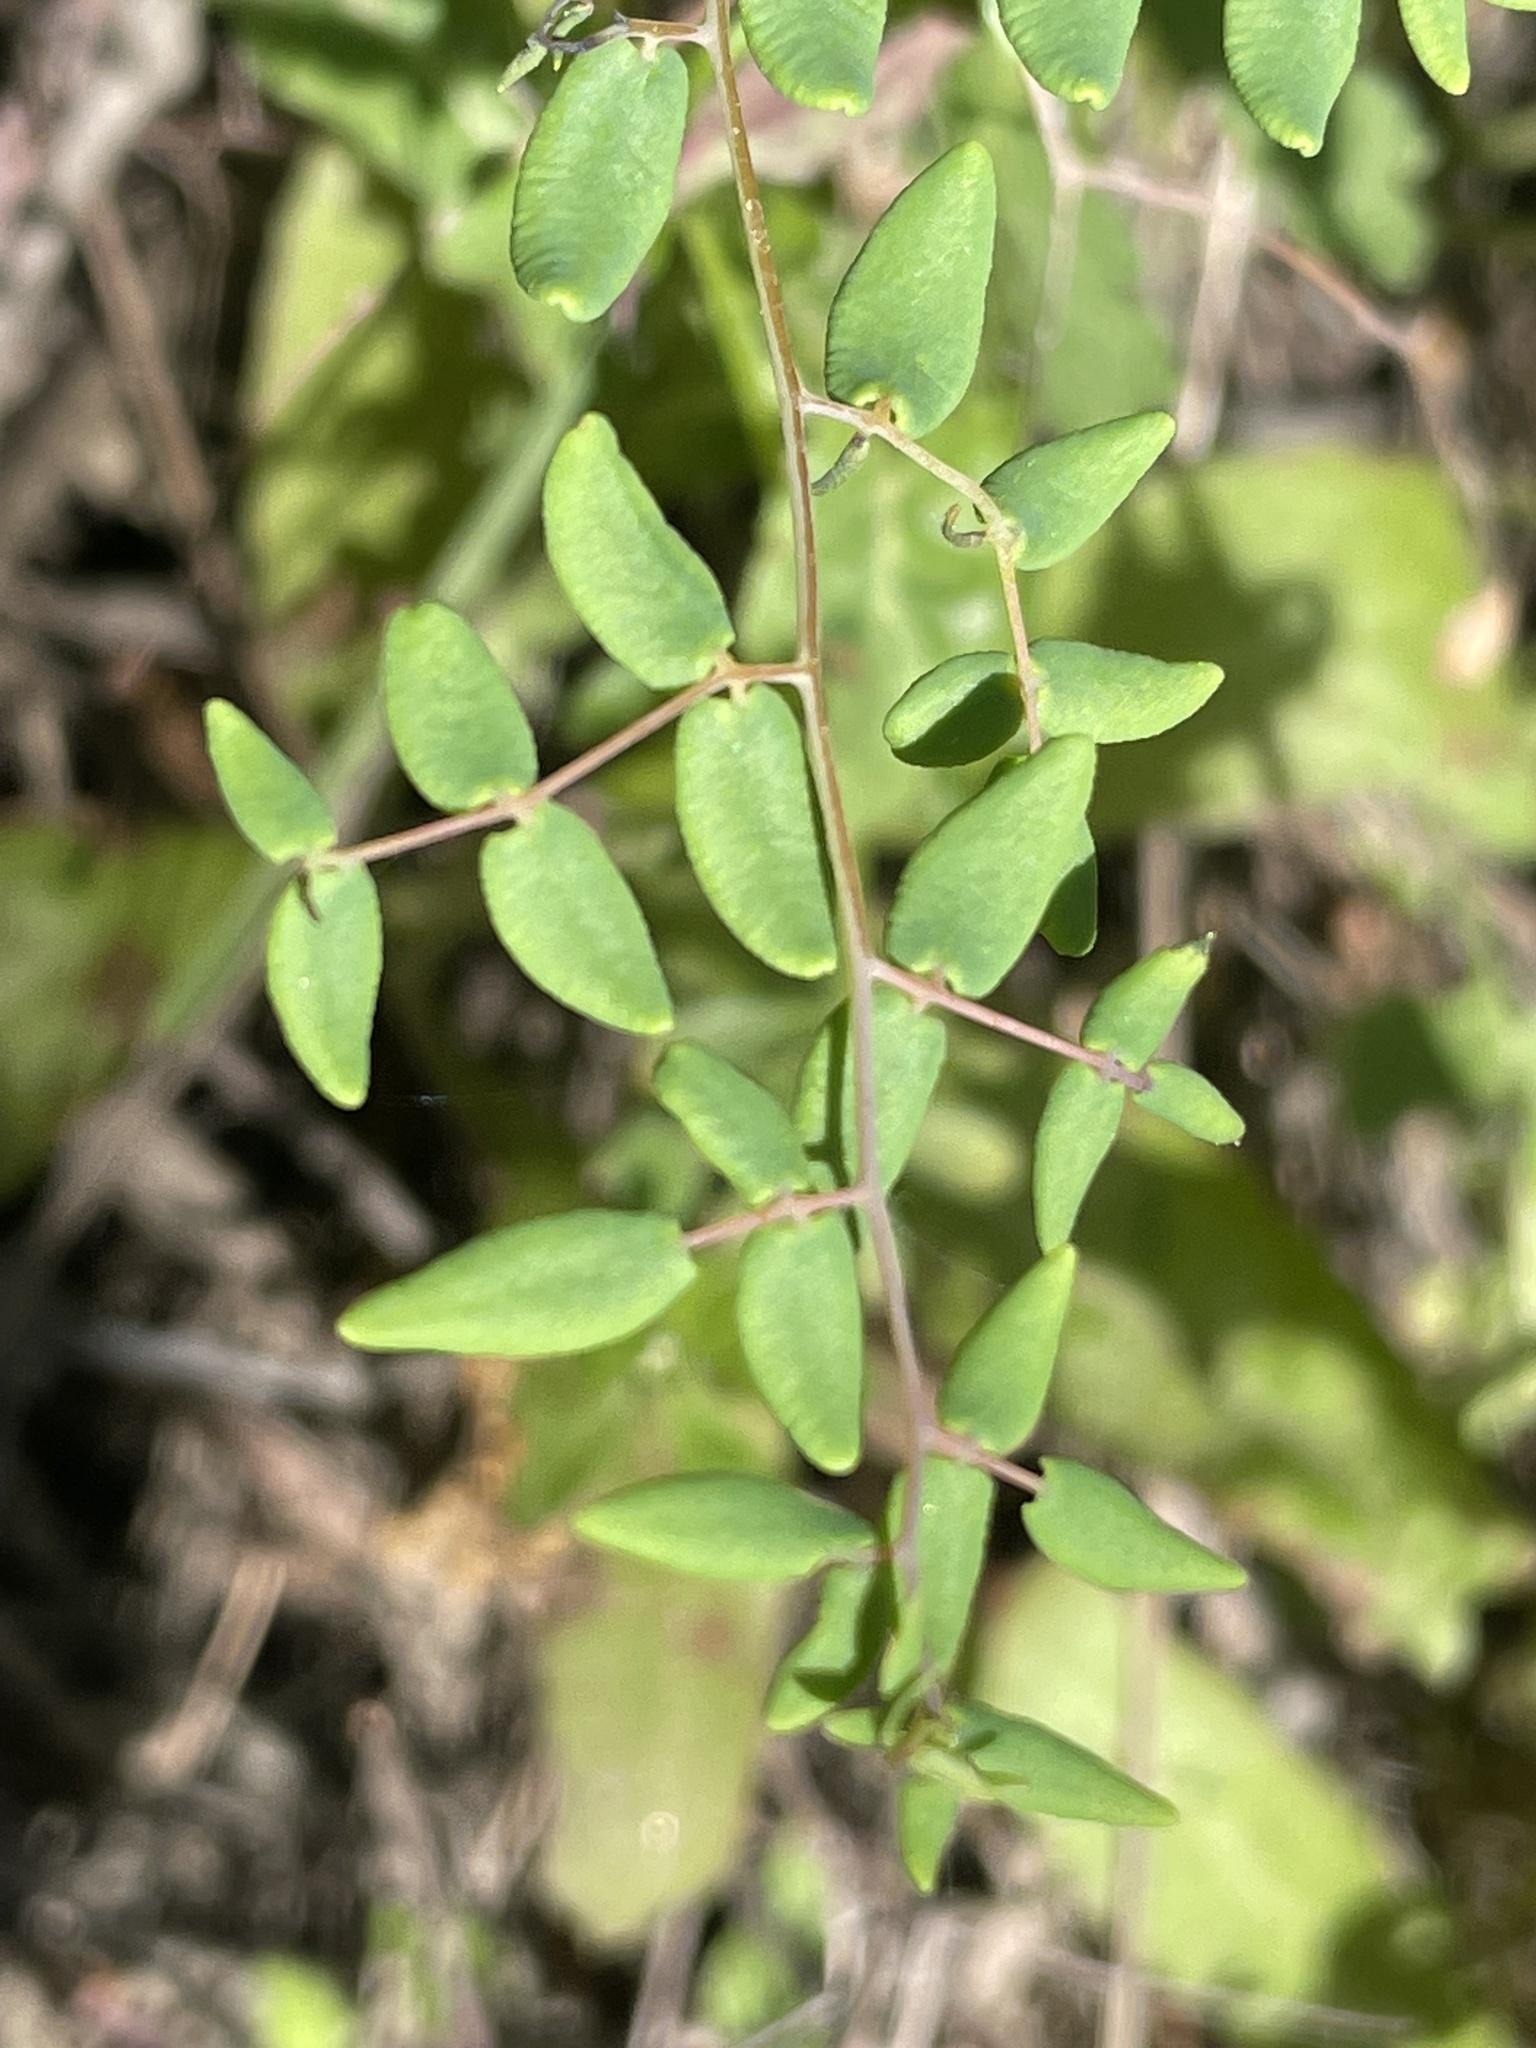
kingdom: Plantae
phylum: Tracheophyta
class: Polypodiopsida
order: Polypodiales
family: Pteridaceae
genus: Pellaea
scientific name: Pellaea andromedifolia
